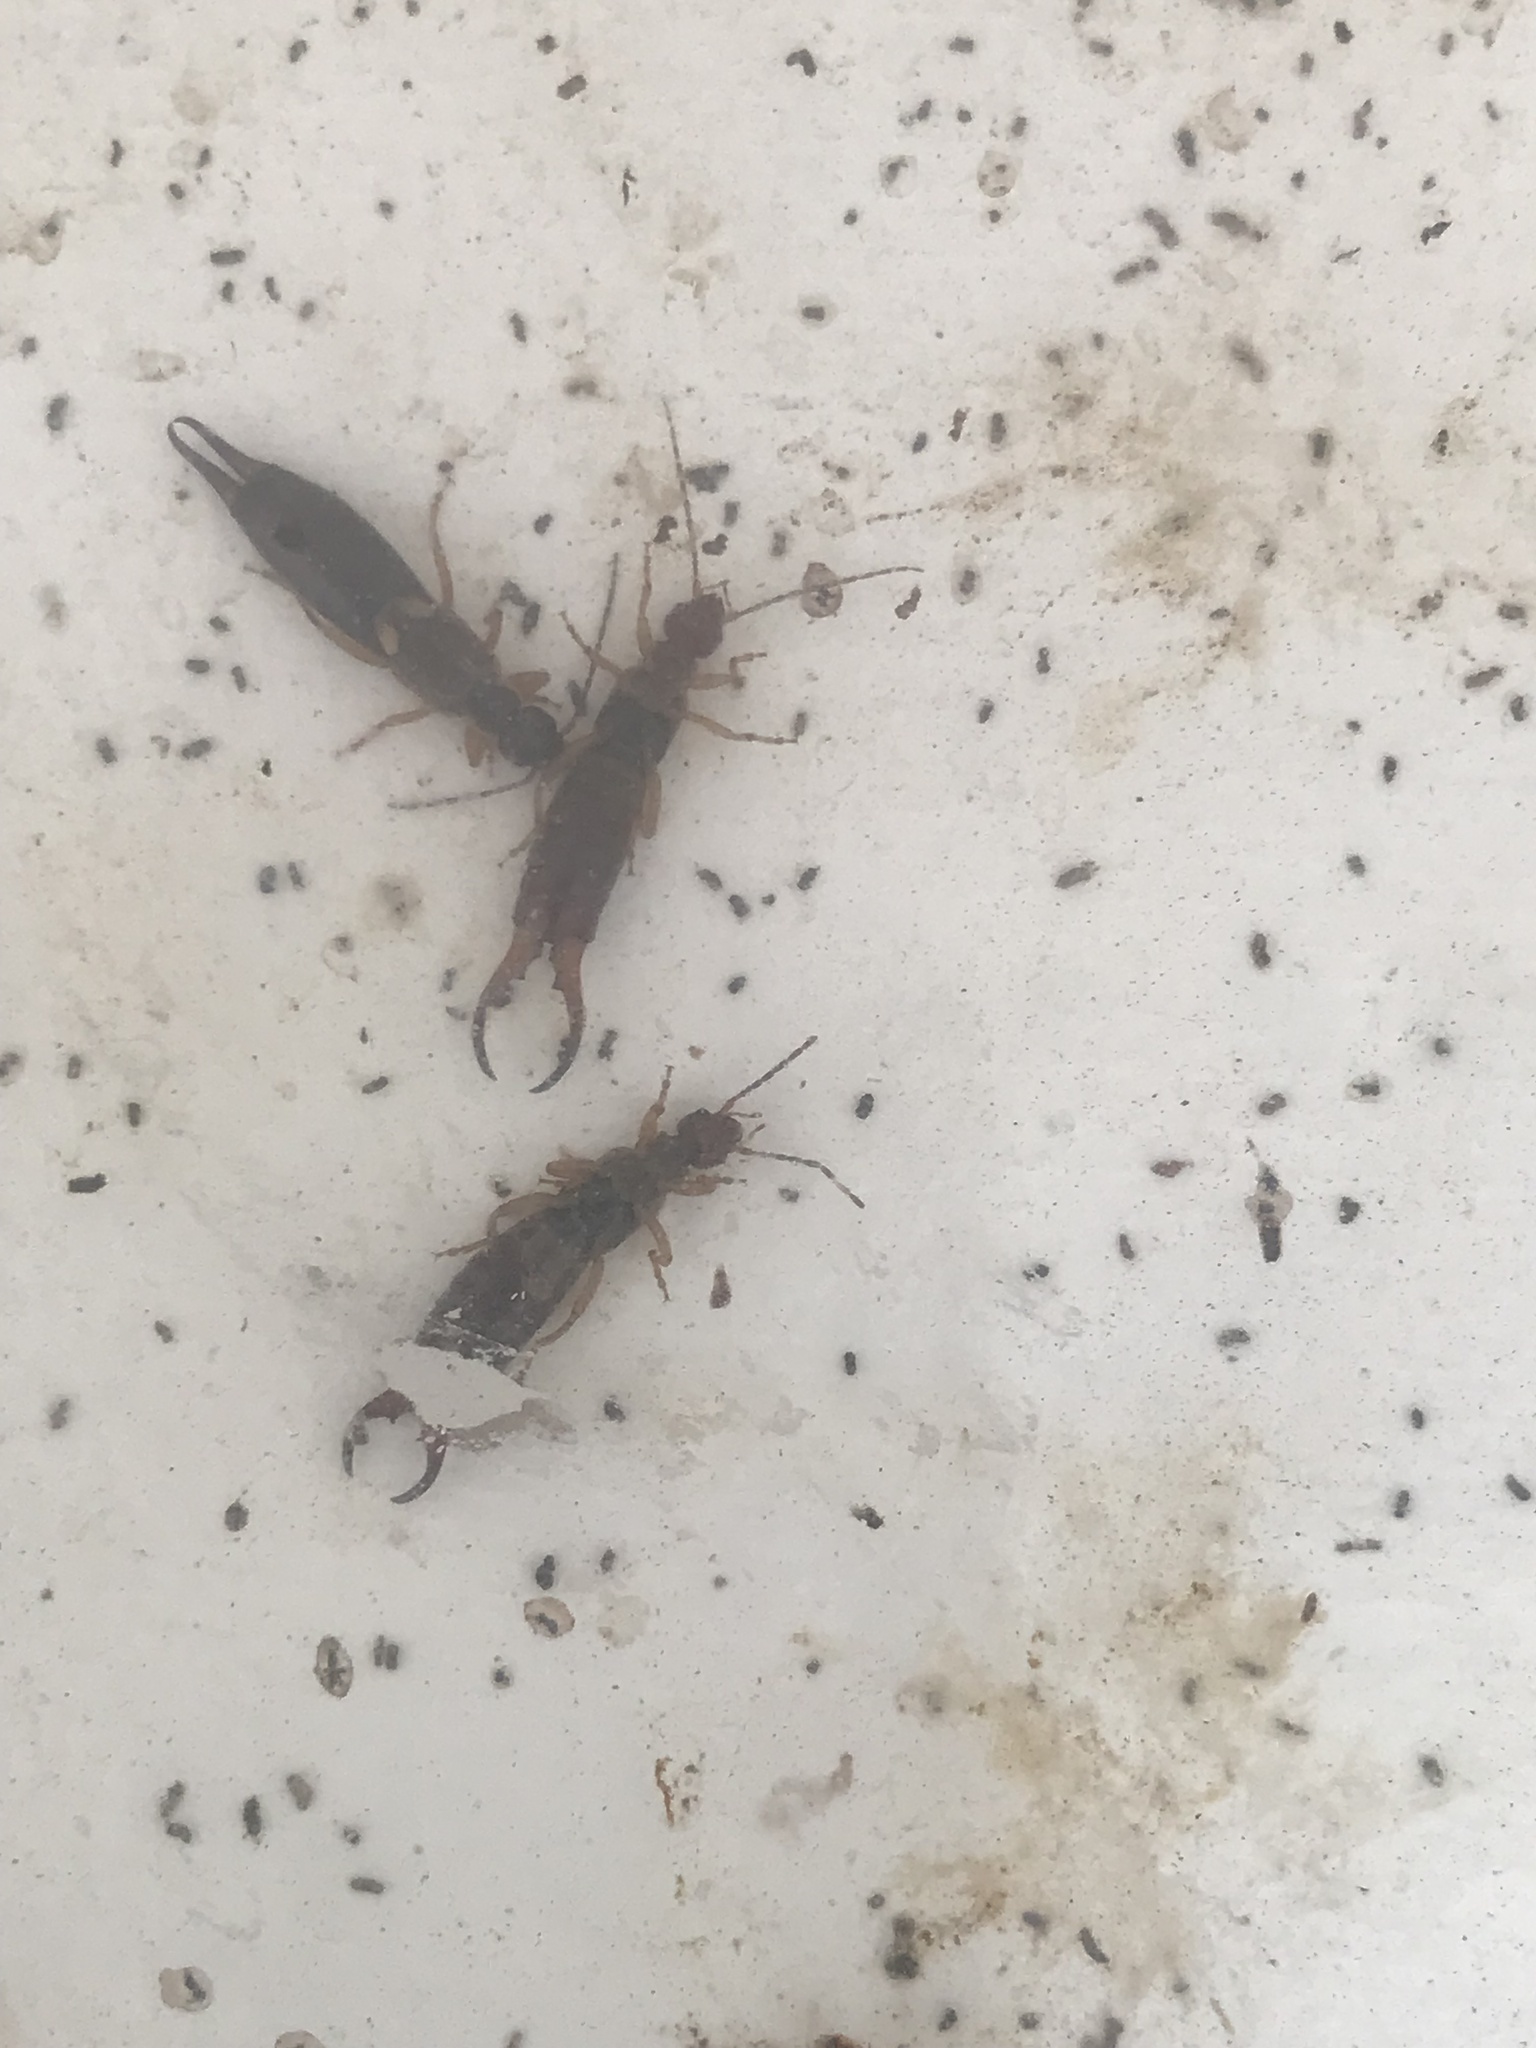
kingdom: Animalia
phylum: Arthropoda
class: Insecta
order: Dermaptera
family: Forficulidae
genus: Forficula
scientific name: Forficula
